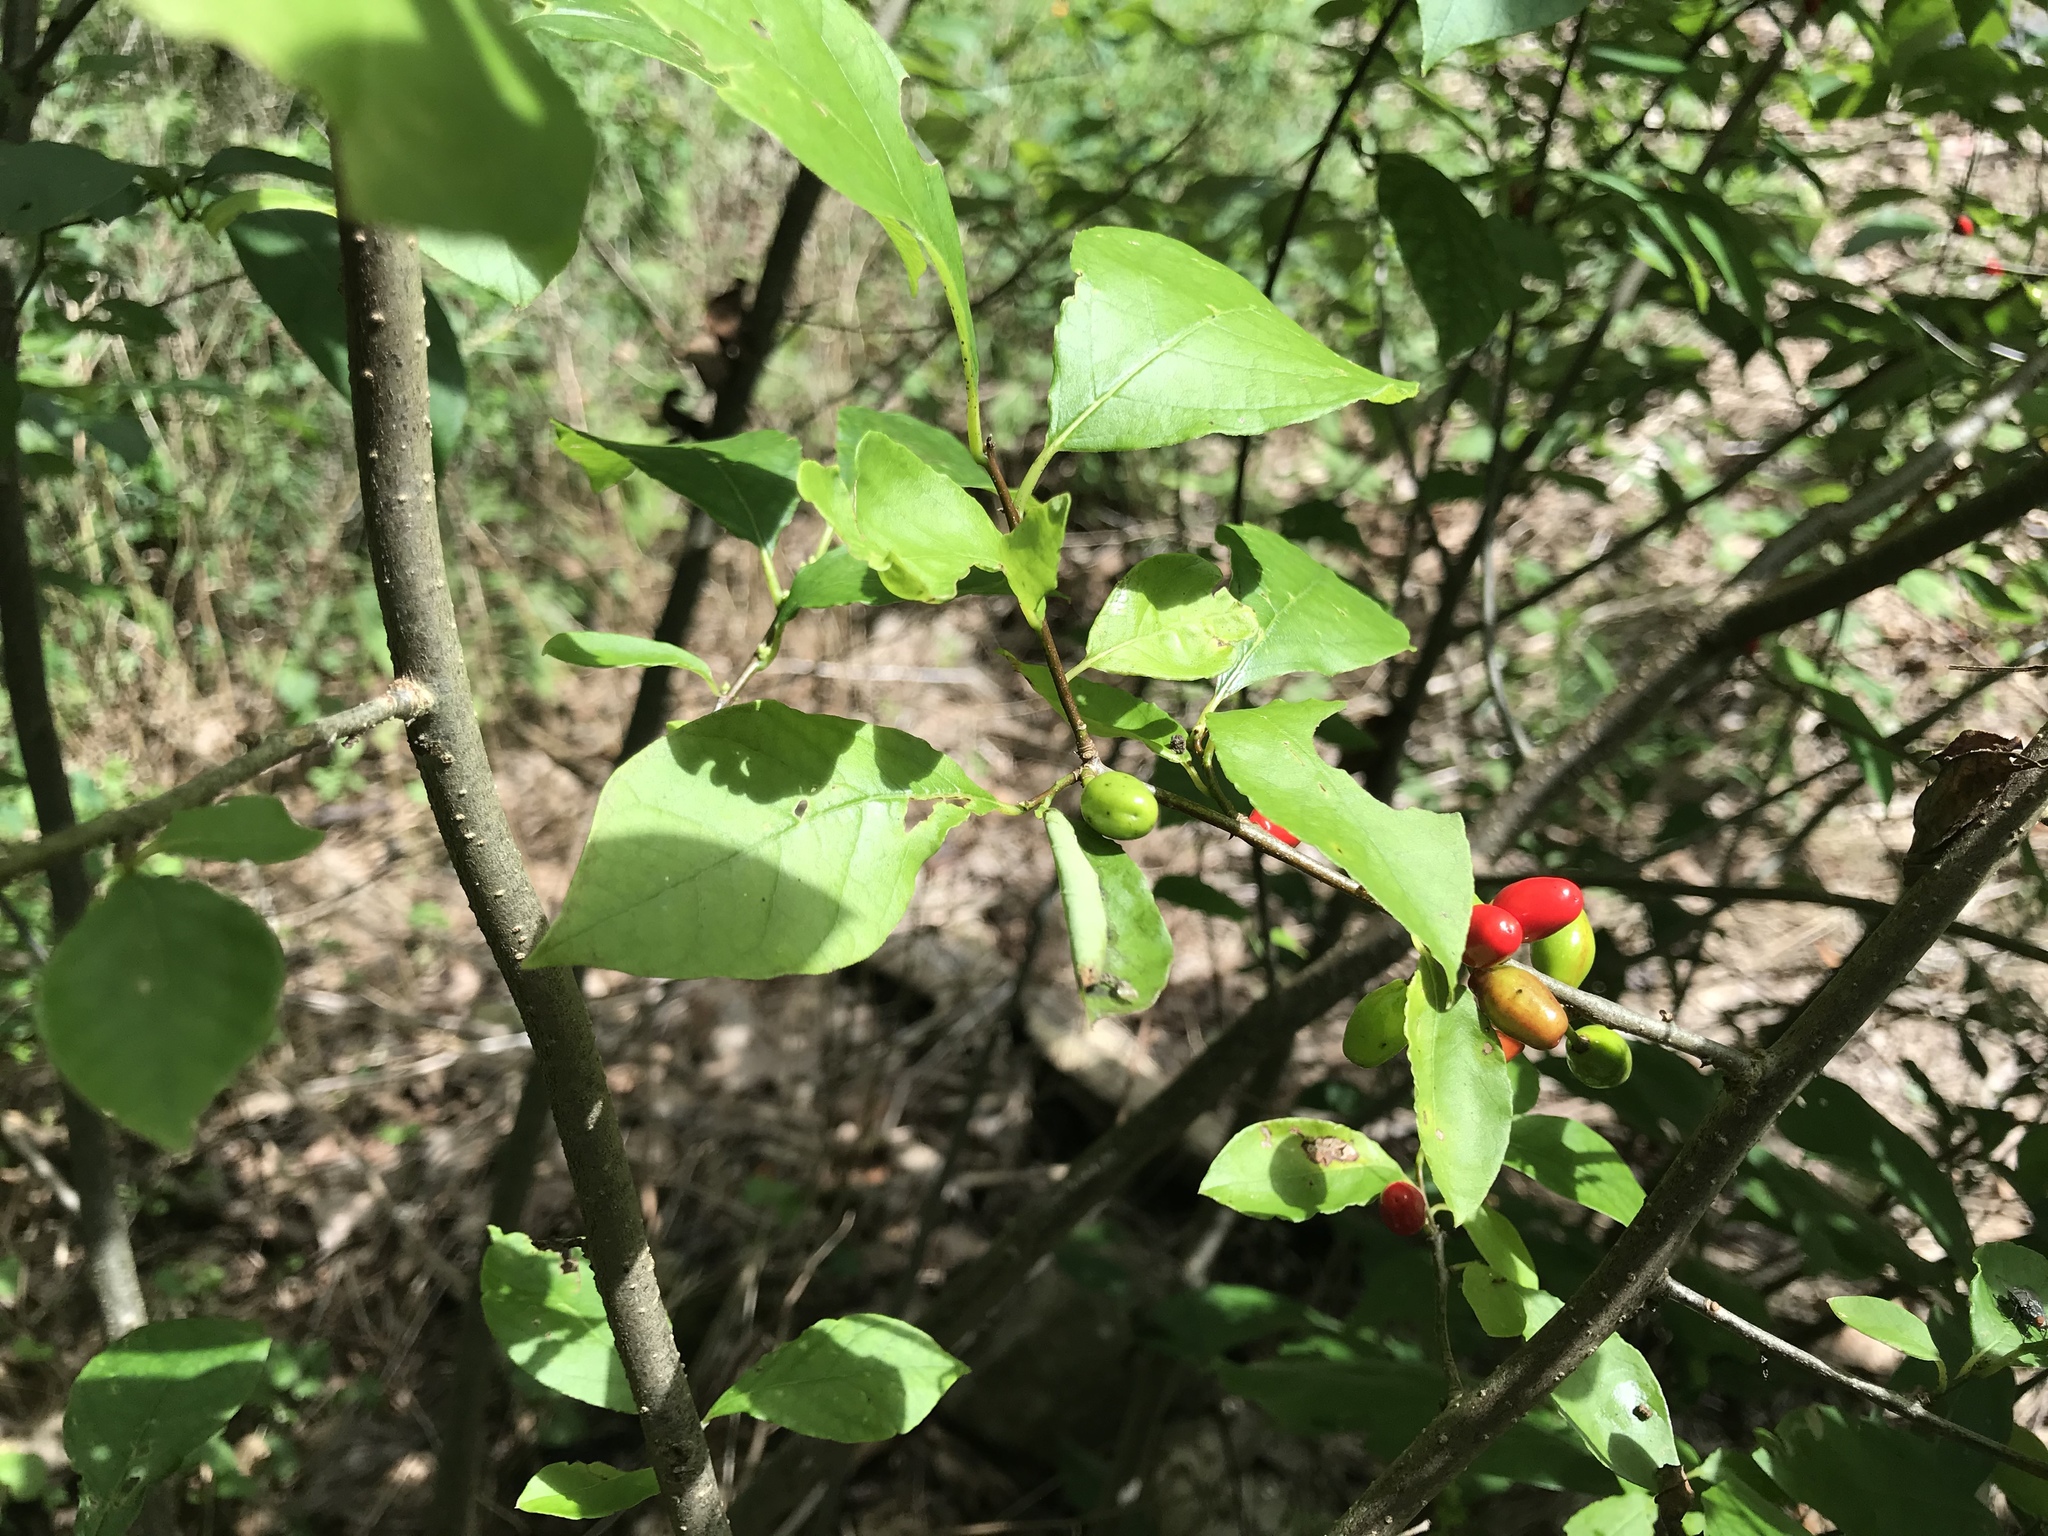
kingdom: Plantae
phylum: Tracheophyta
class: Magnoliopsida
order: Laurales
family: Lauraceae
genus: Lindera
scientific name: Lindera benzoin
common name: Spicebush
